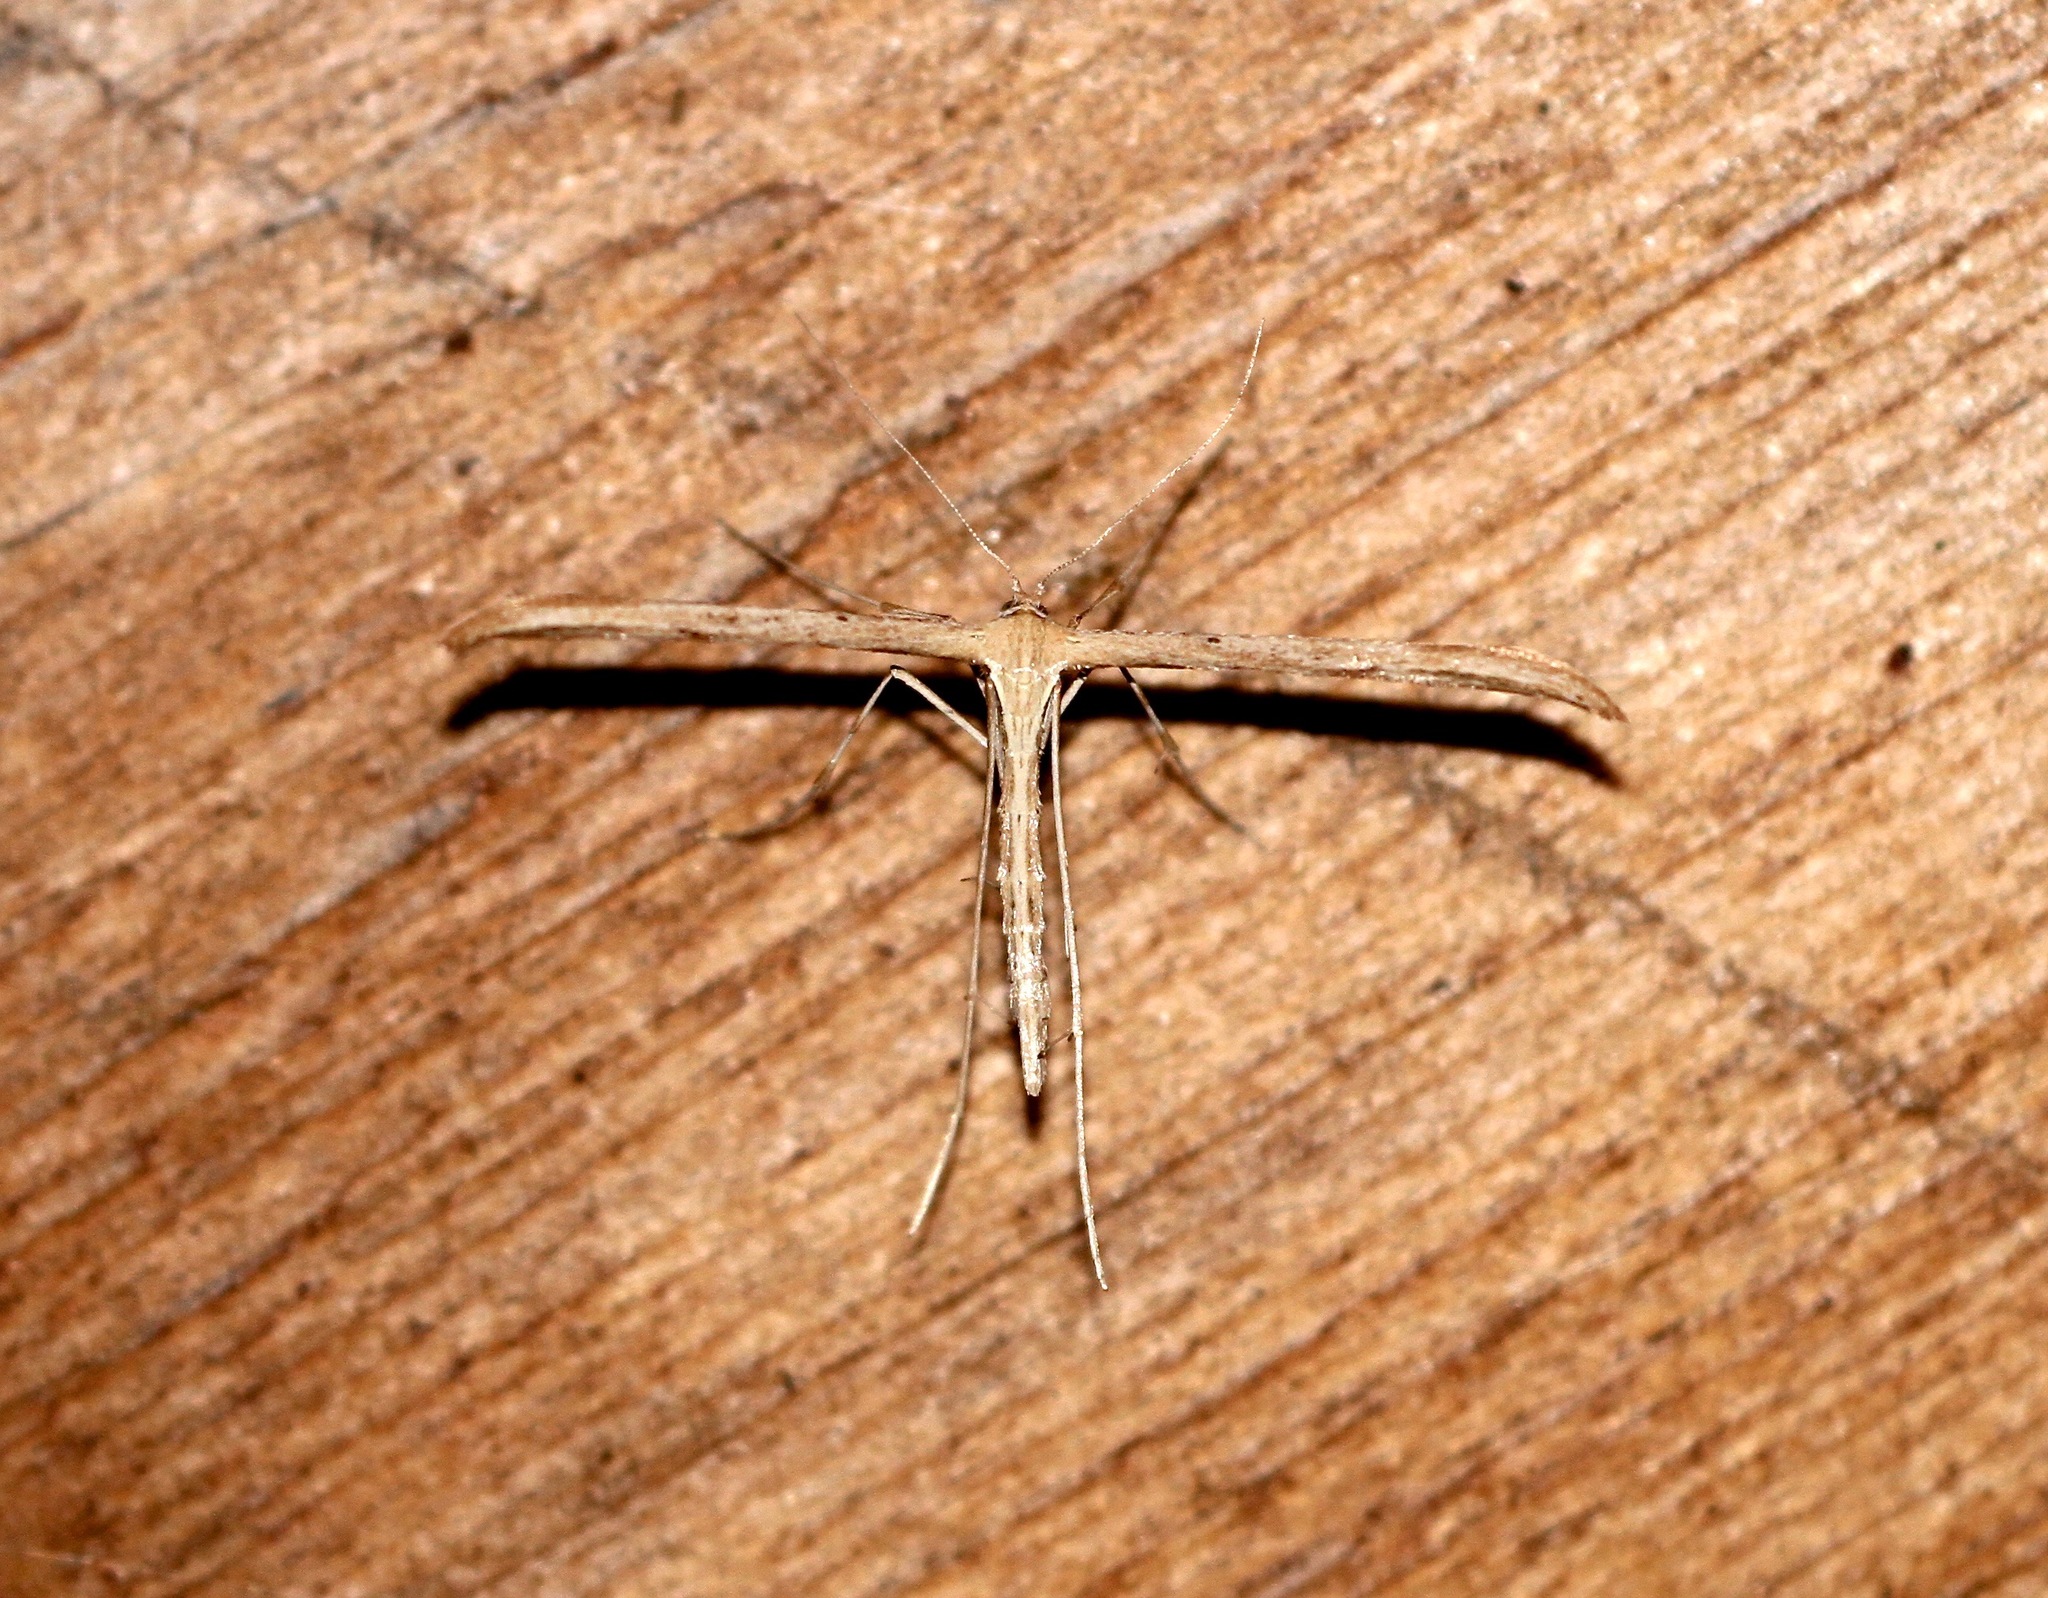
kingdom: Animalia
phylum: Arthropoda
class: Insecta
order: Lepidoptera
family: Pterophoridae
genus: Emmelina
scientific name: Emmelina monodactyla
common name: Common plume
